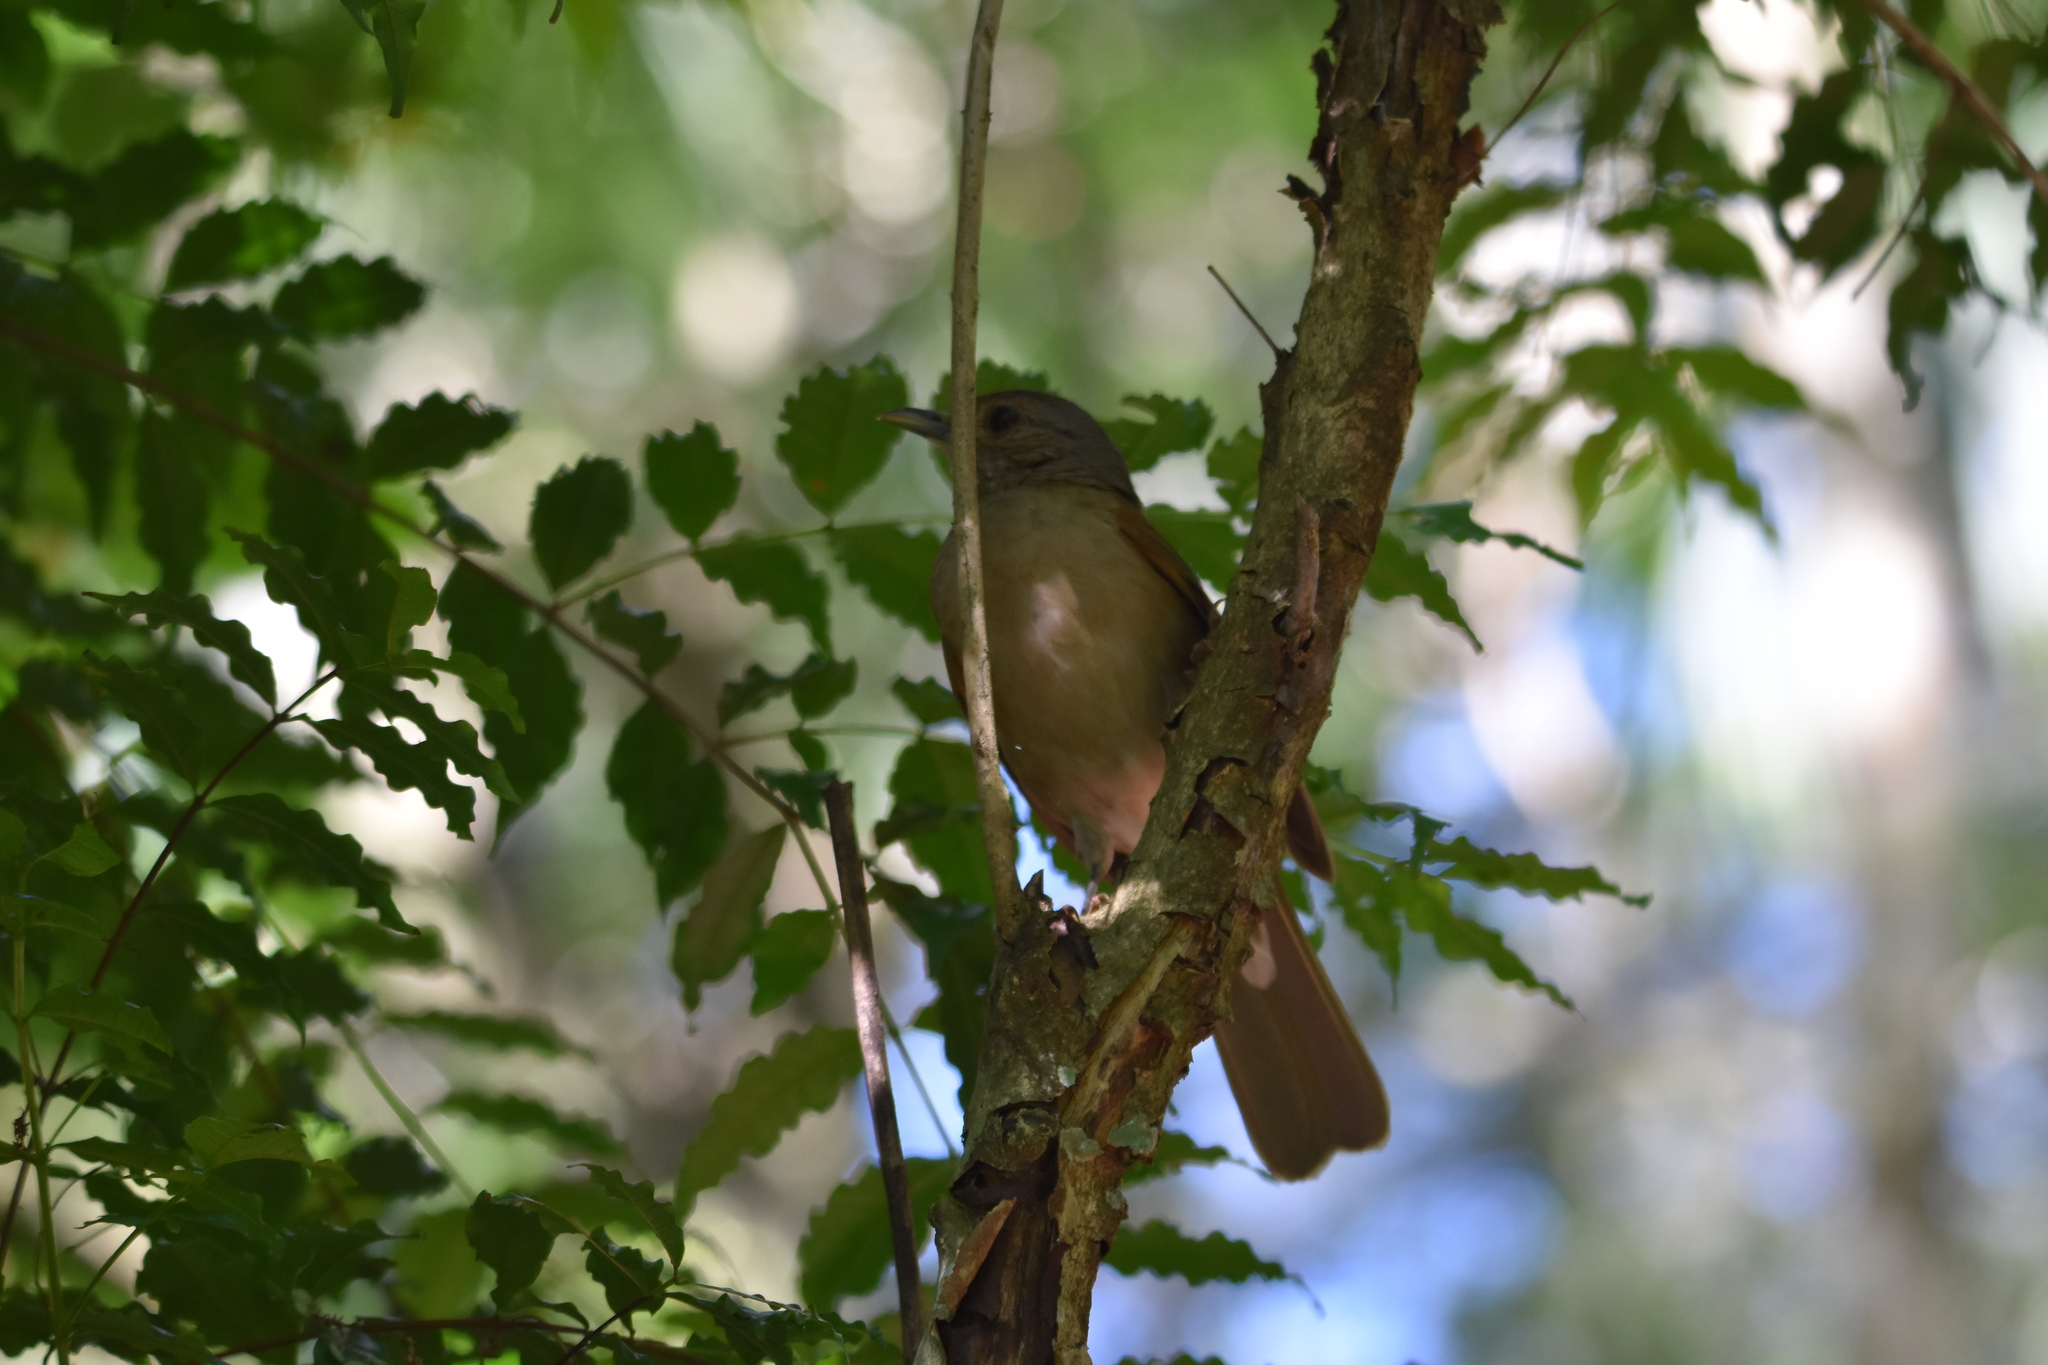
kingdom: Animalia
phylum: Chordata
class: Aves
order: Passeriformes
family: Turdidae
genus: Turdus
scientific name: Turdus leucomelas
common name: Pale-breasted thrush
